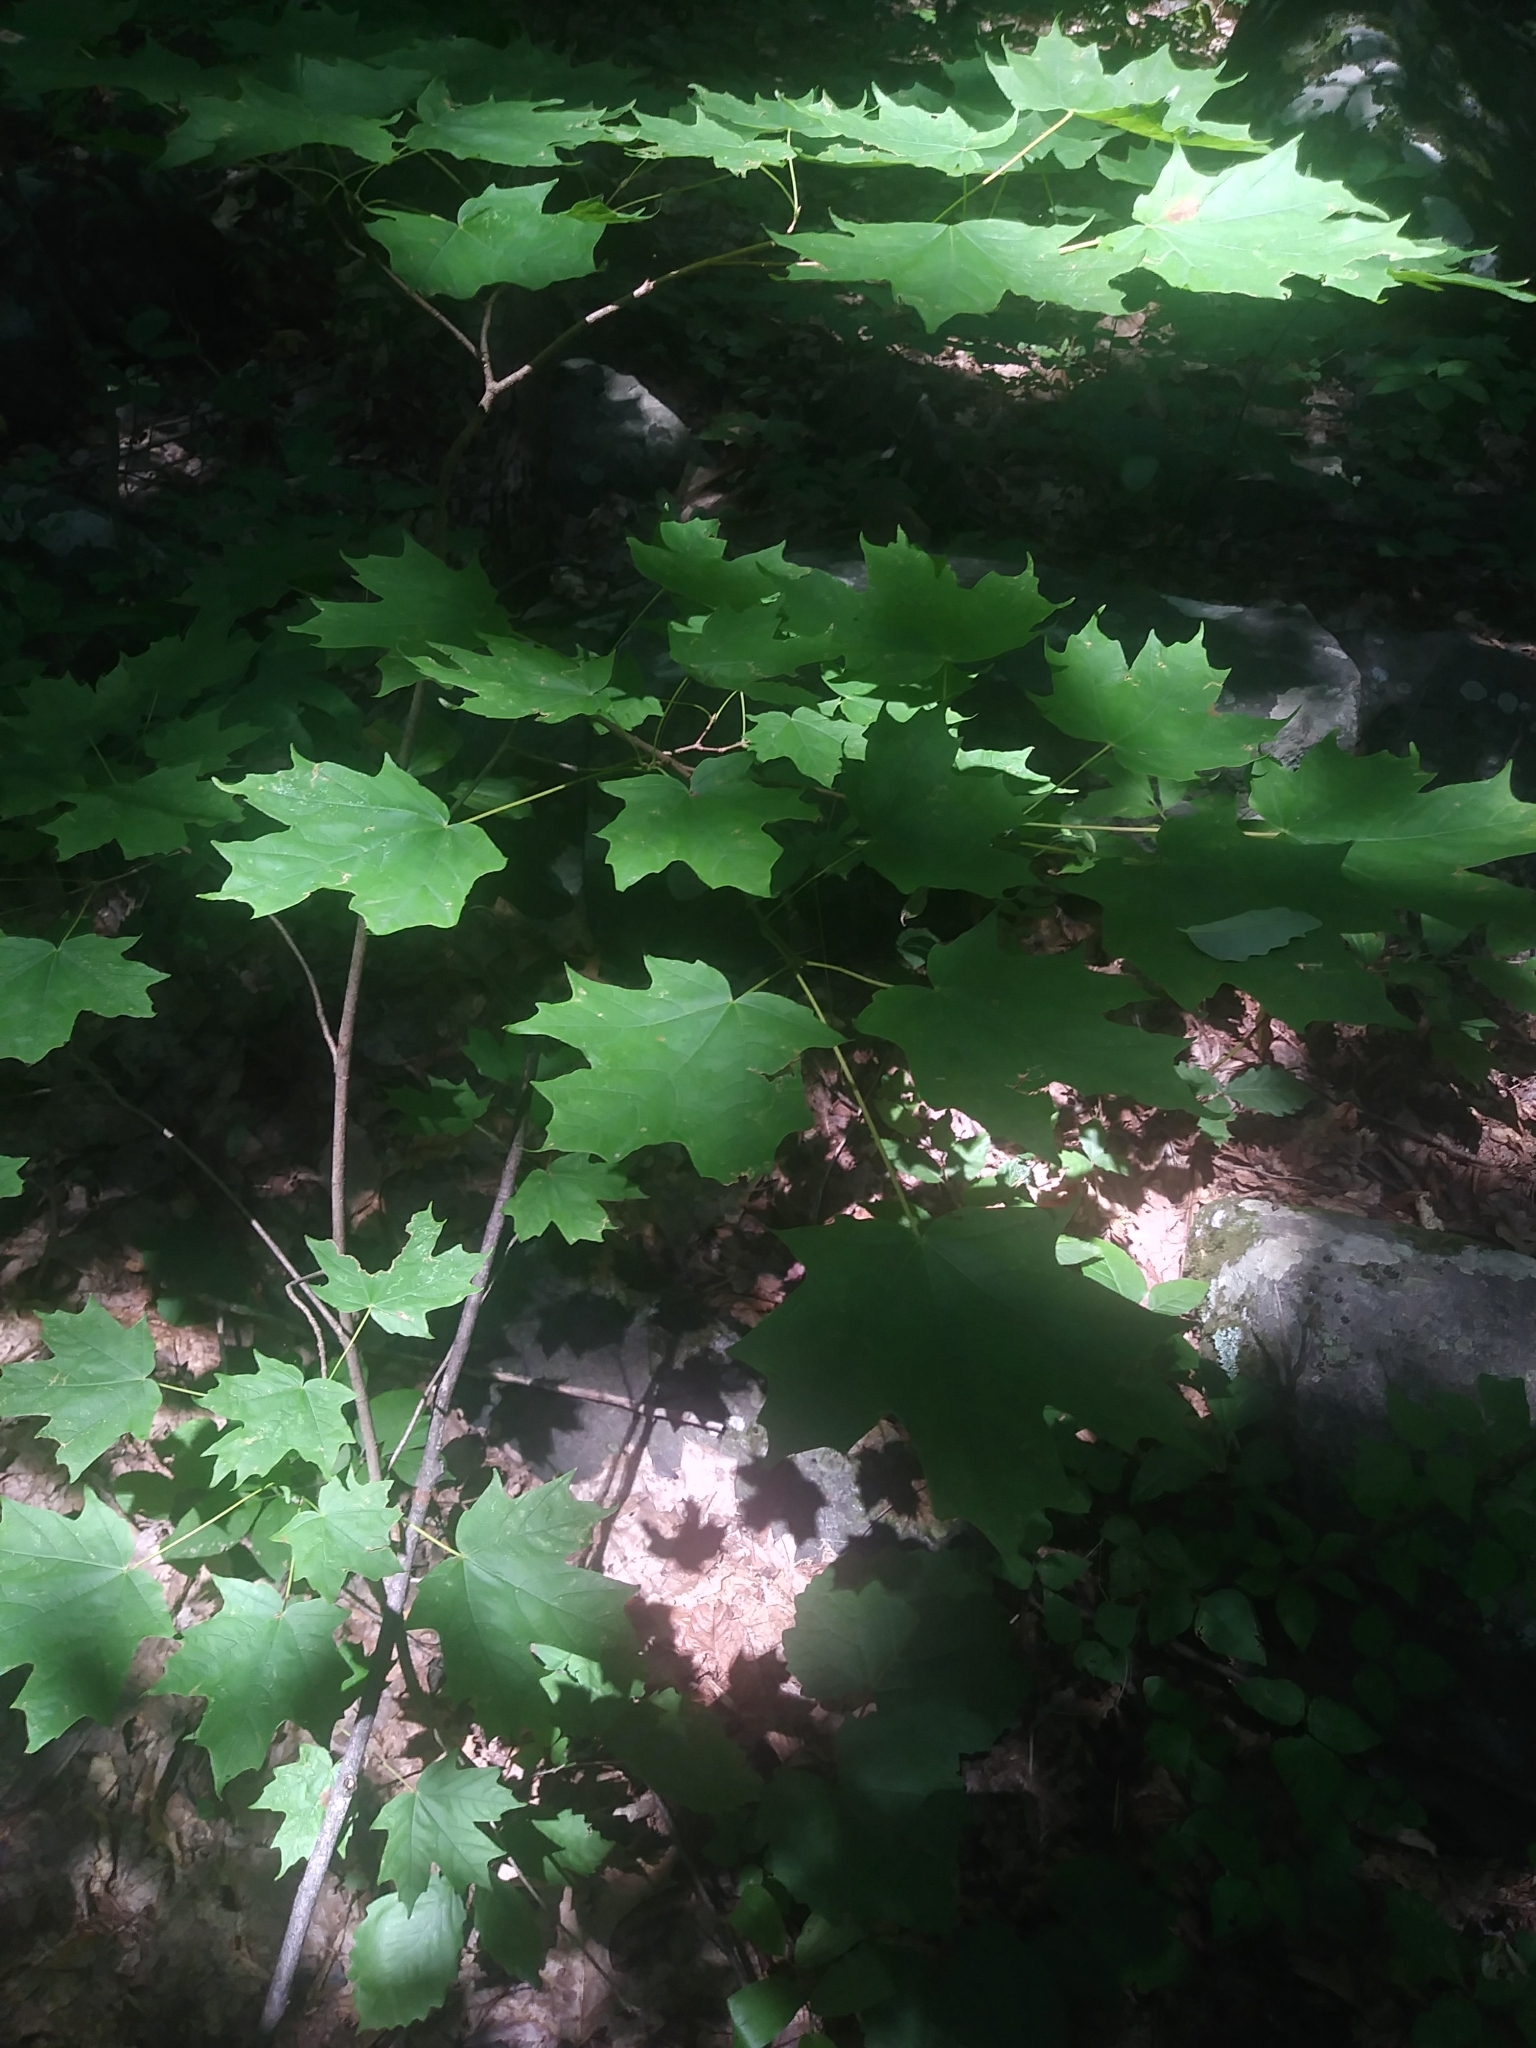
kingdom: Plantae
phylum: Tracheophyta
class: Magnoliopsida
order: Sapindales
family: Sapindaceae
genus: Acer
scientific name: Acer saccharum
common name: Sugar maple
